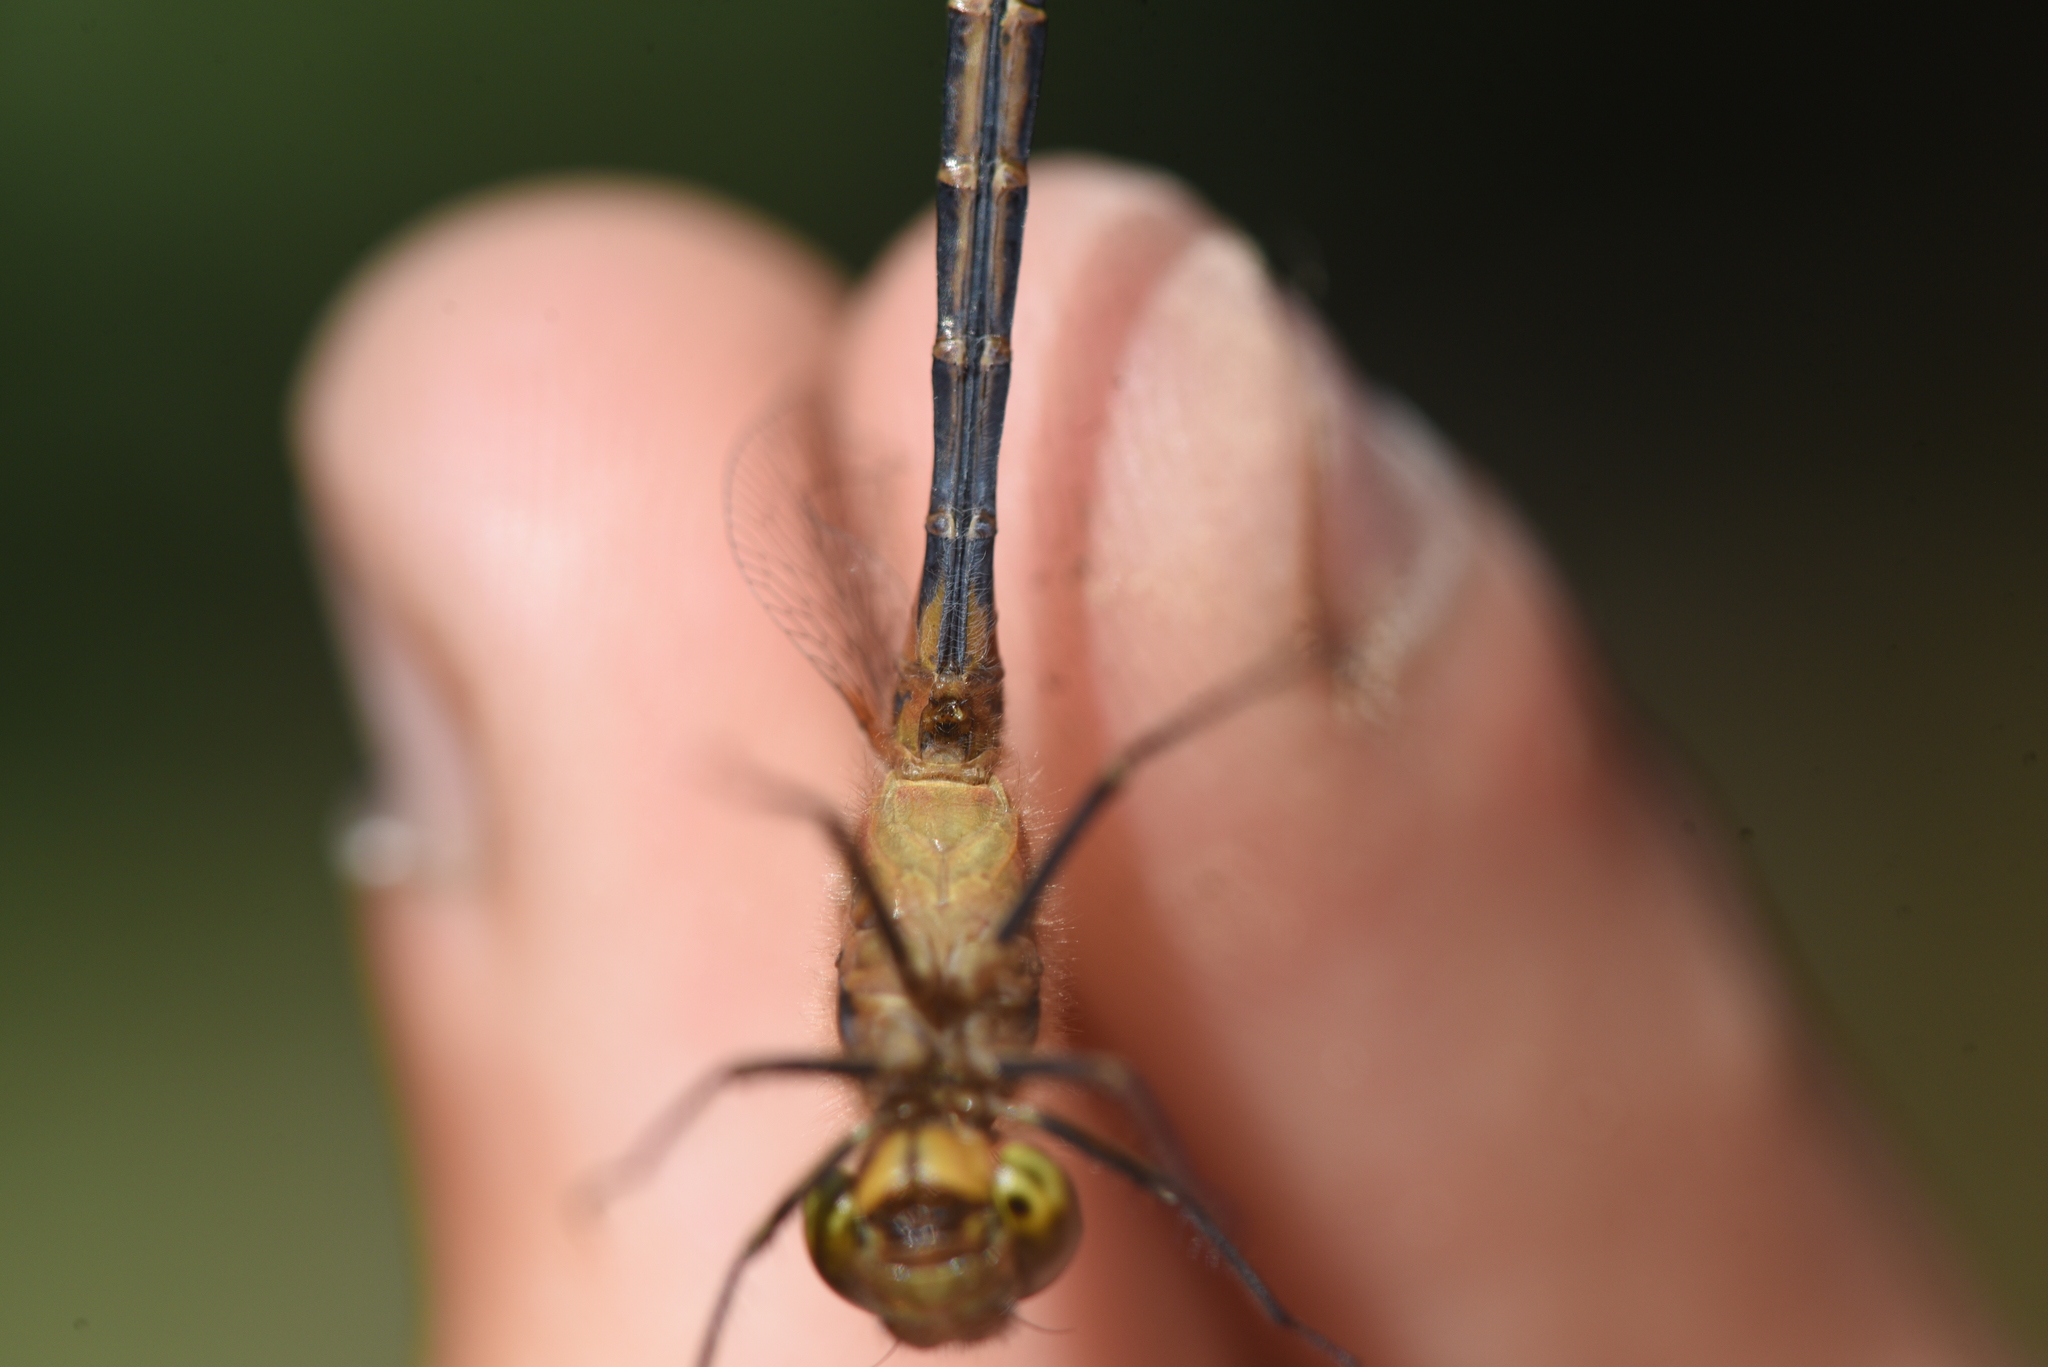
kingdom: Animalia
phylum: Arthropoda
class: Insecta
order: Odonata
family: Libellulidae
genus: Sympetrum
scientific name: Sympetrum costiferum
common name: Saffron-winged meadowhawk
